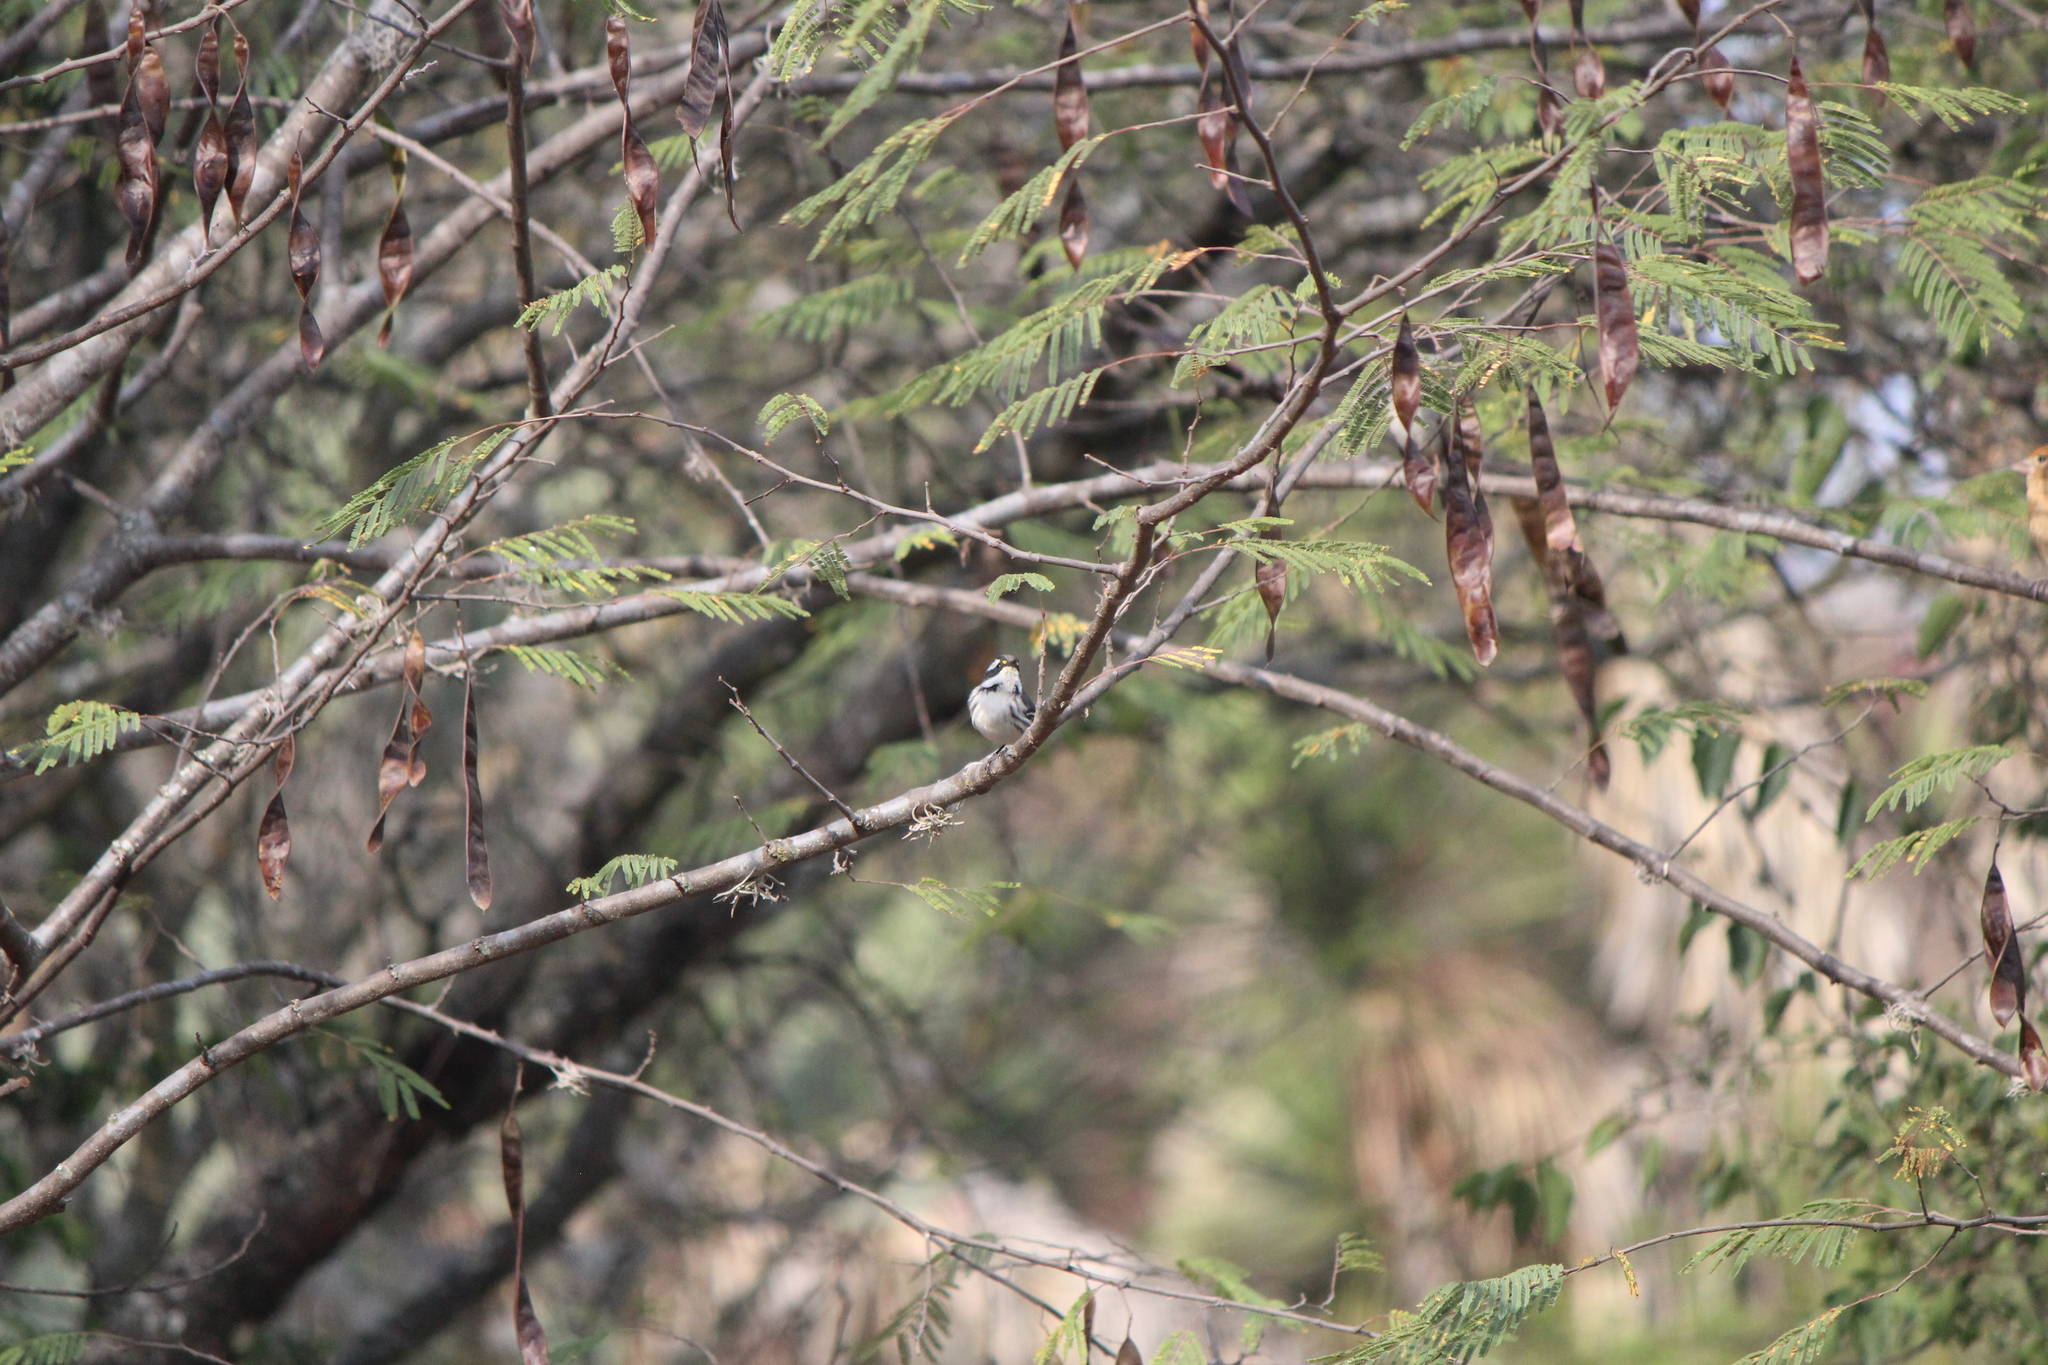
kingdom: Animalia
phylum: Chordata
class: Aves
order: Passeriformes
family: Parulidae
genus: Setophaga
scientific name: Setophaga nigrescens
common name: Black-throated gray warbler
